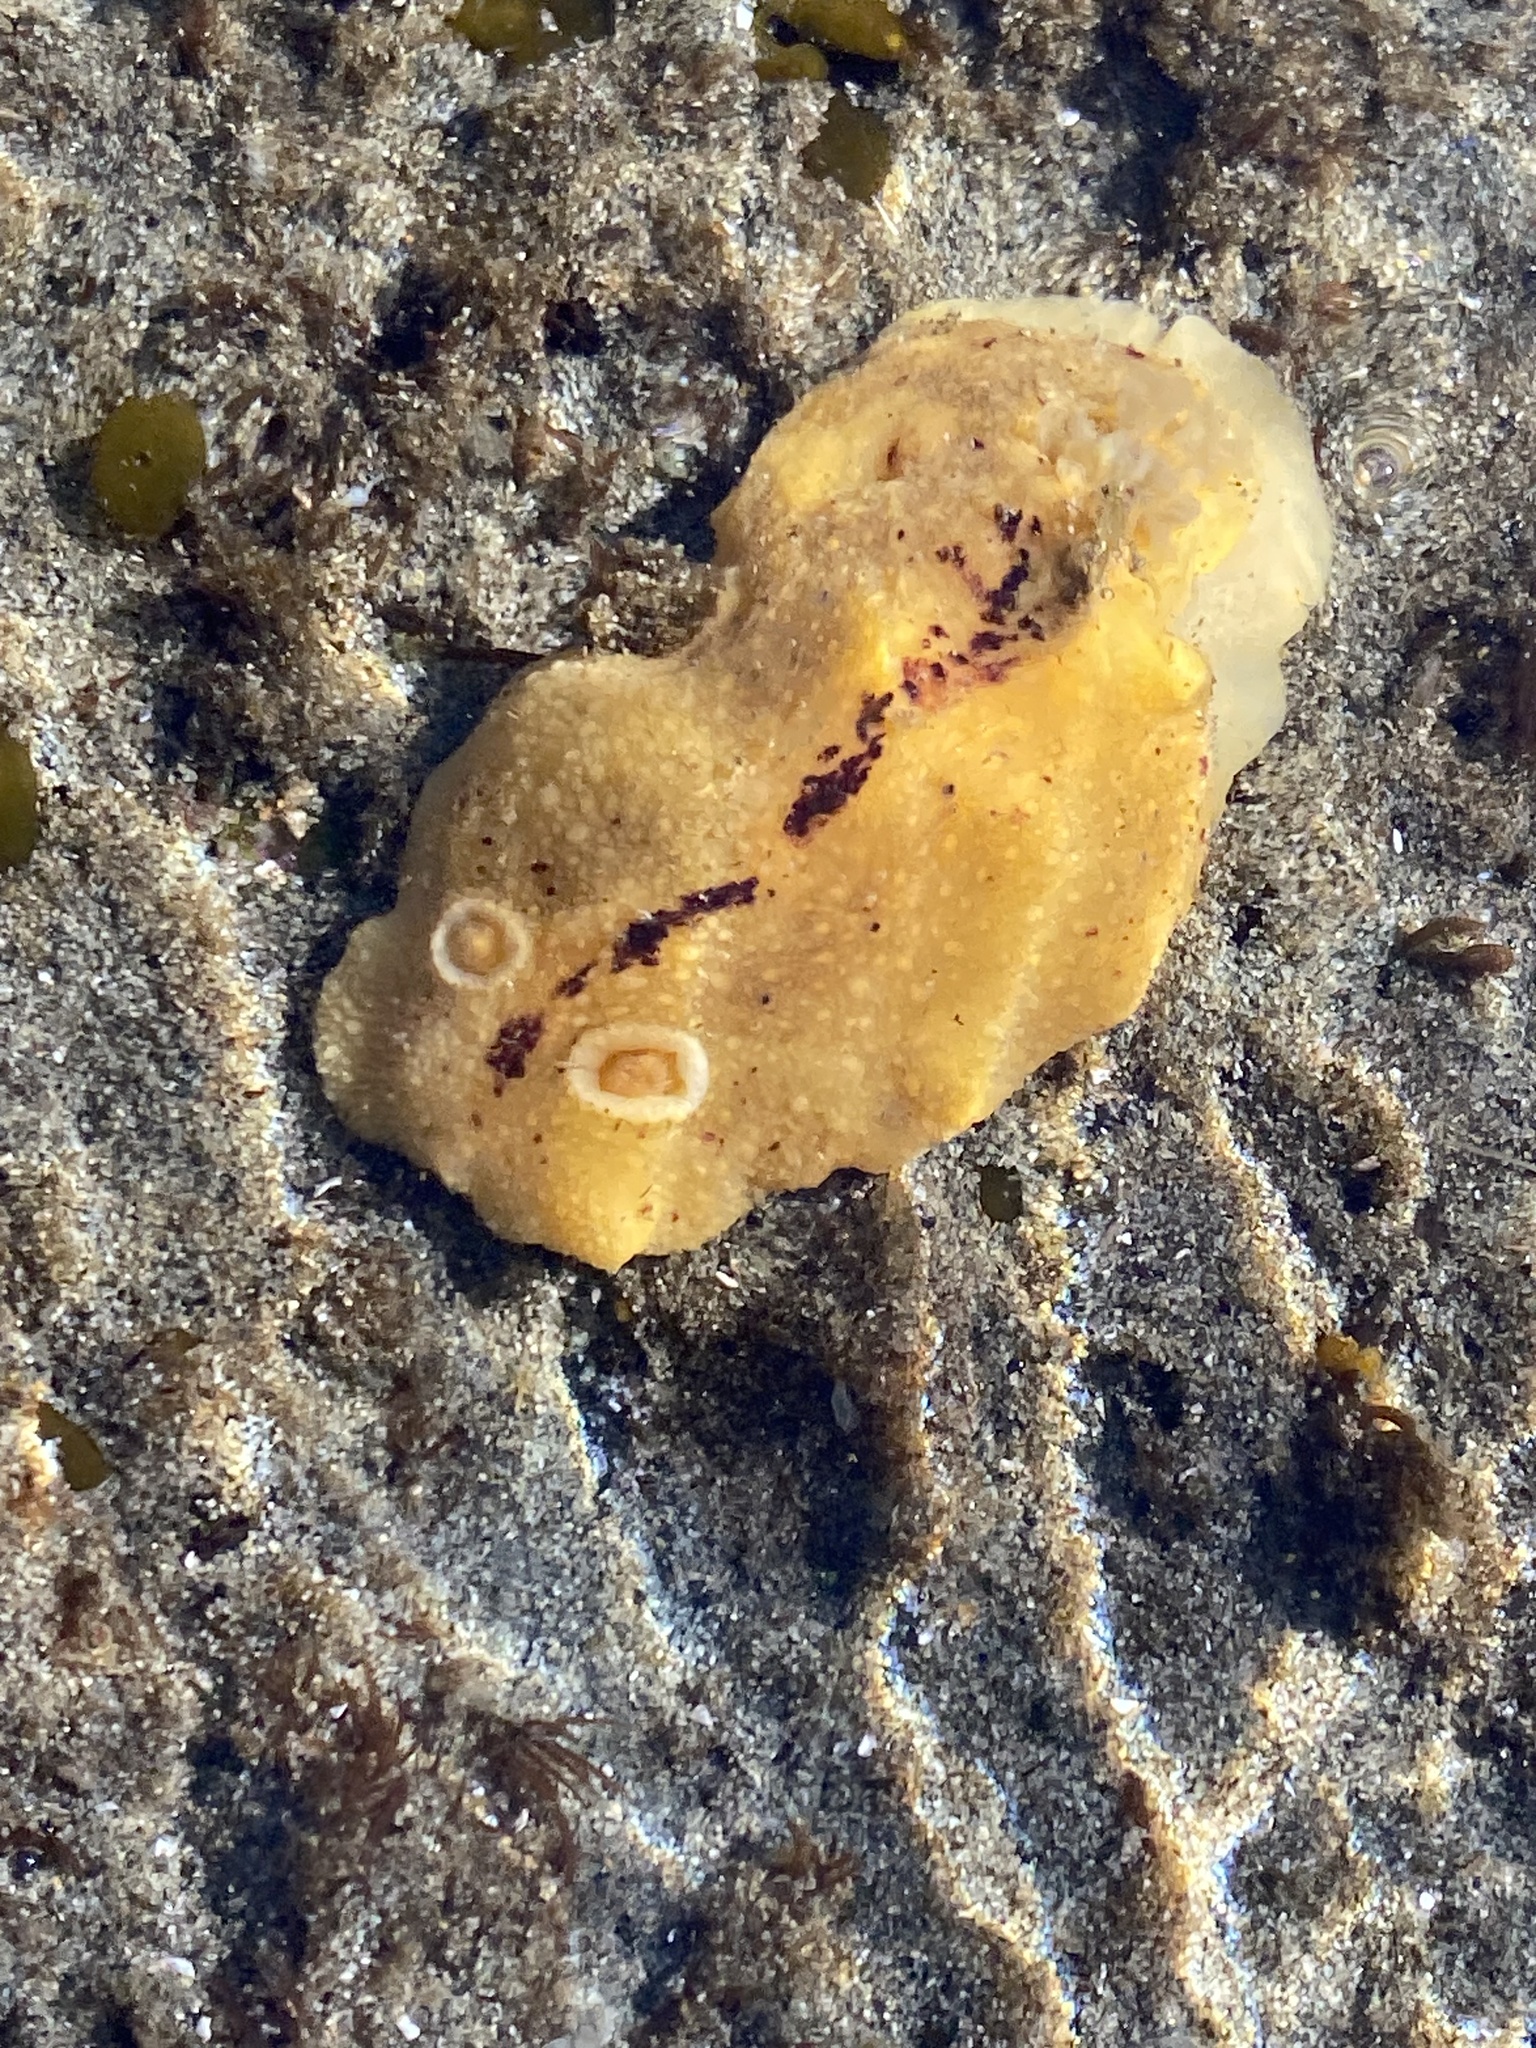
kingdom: Animalia
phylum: Mollusca
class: Gastropoda
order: Nudibranchia
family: Dorididae
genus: Doris
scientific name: Doris montereyensis
